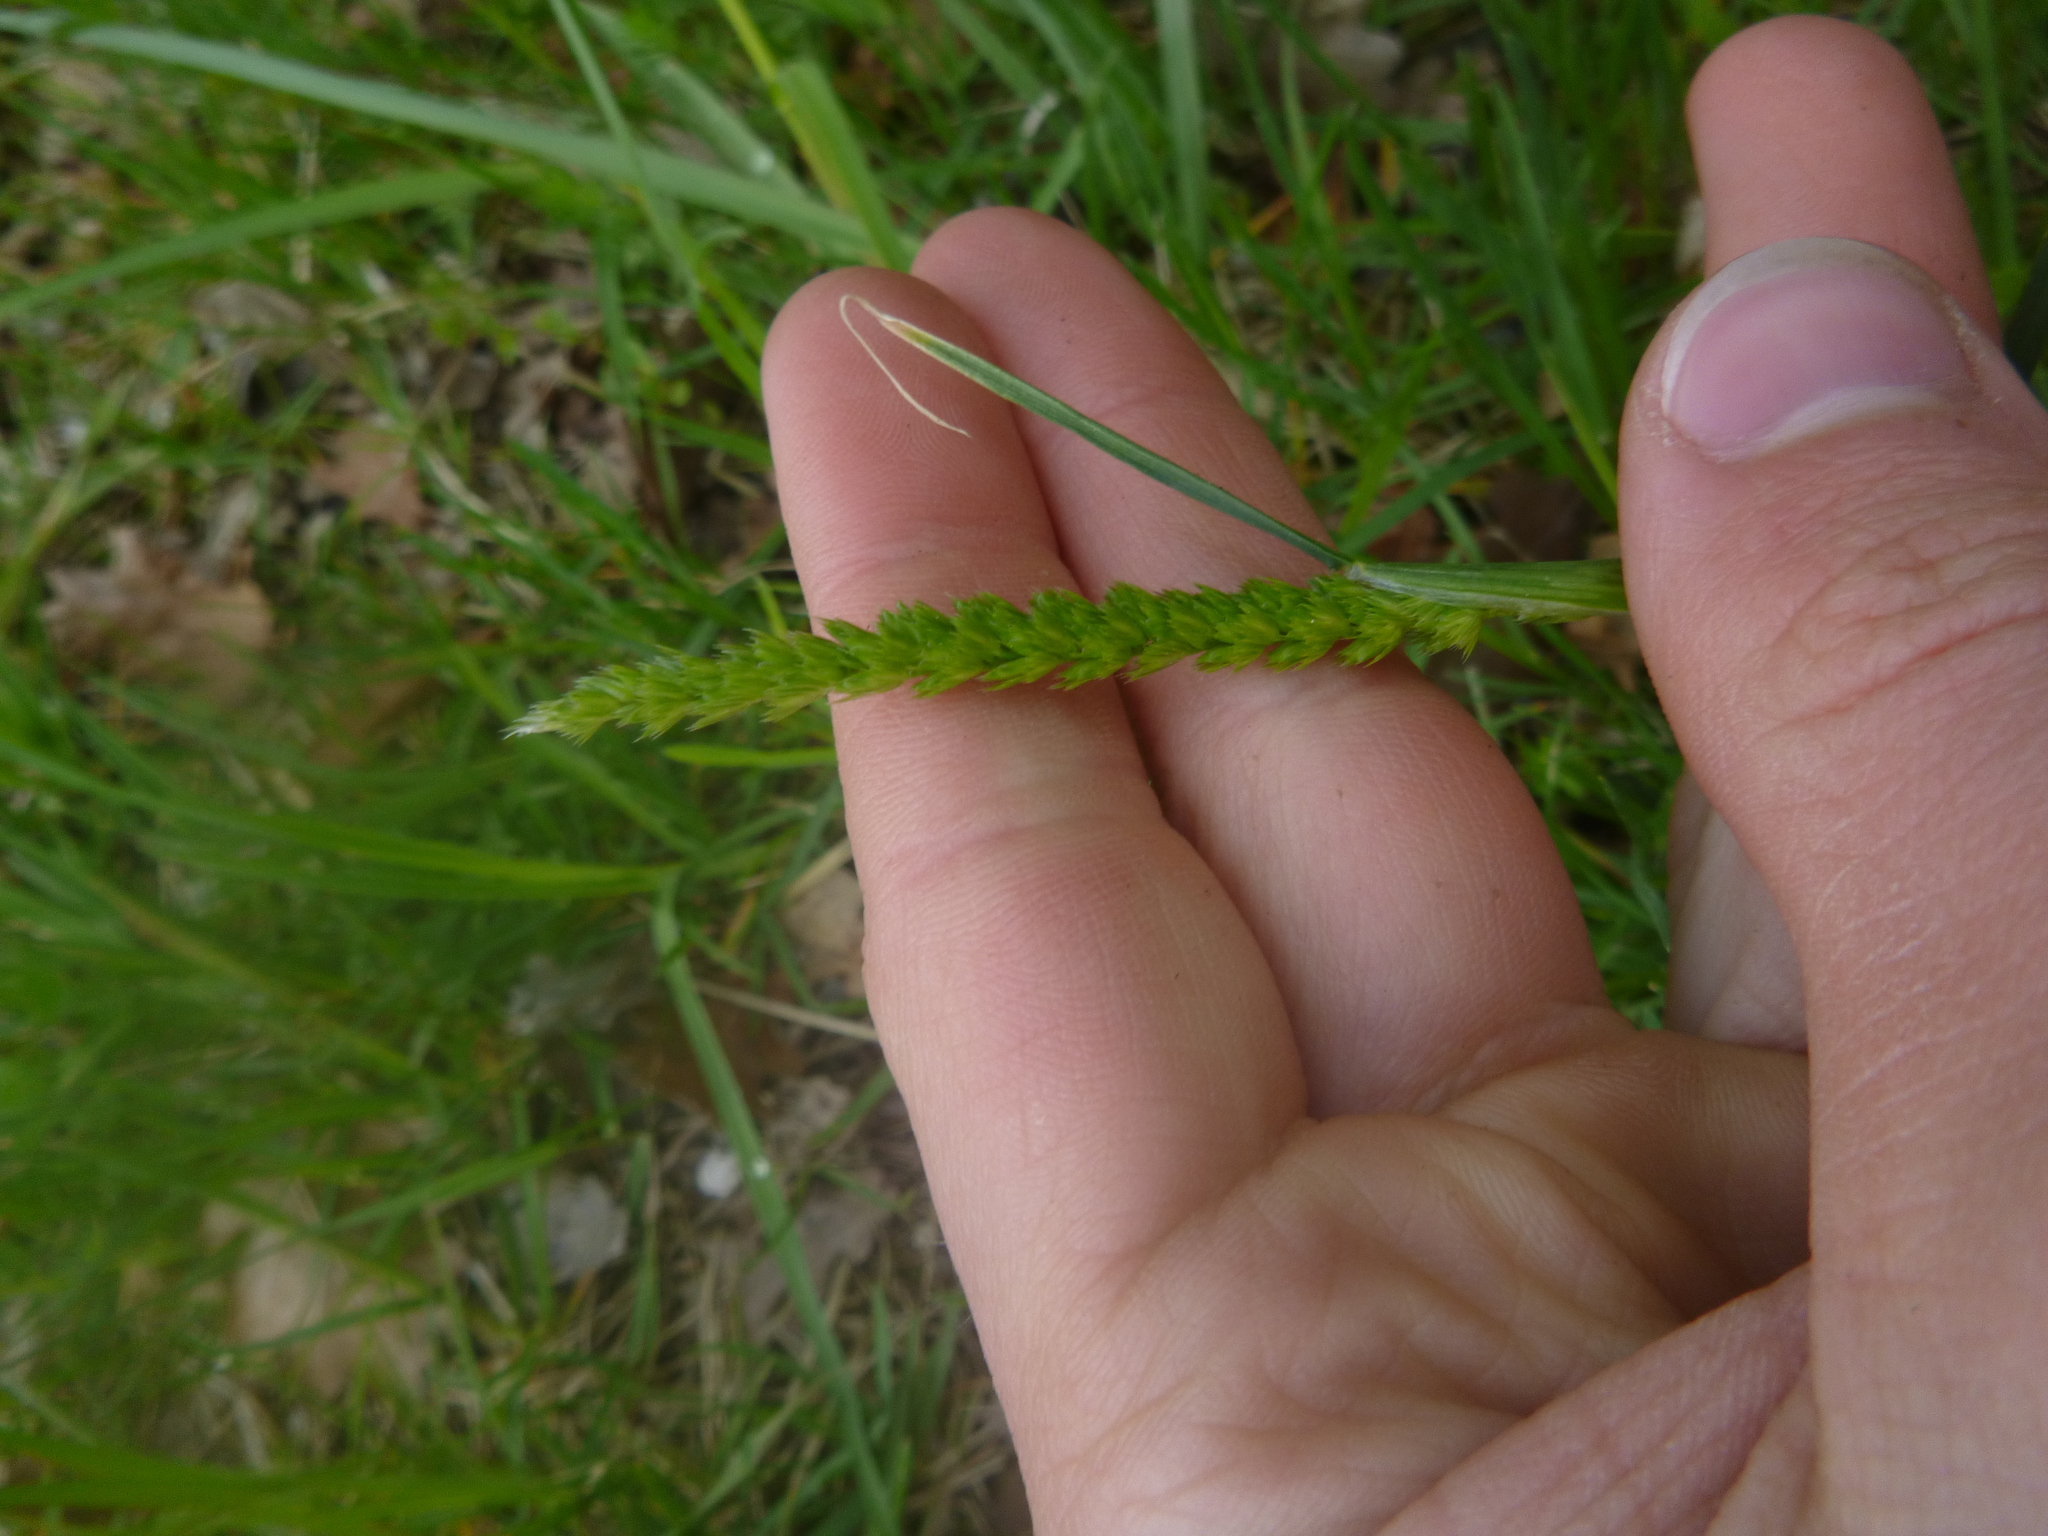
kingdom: Plantae
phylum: Tracheophyta
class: Liliopsida
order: Poales
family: Poaceae
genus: Cynosurus
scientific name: Cynosurus cristatus
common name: Crested dog's-tail
